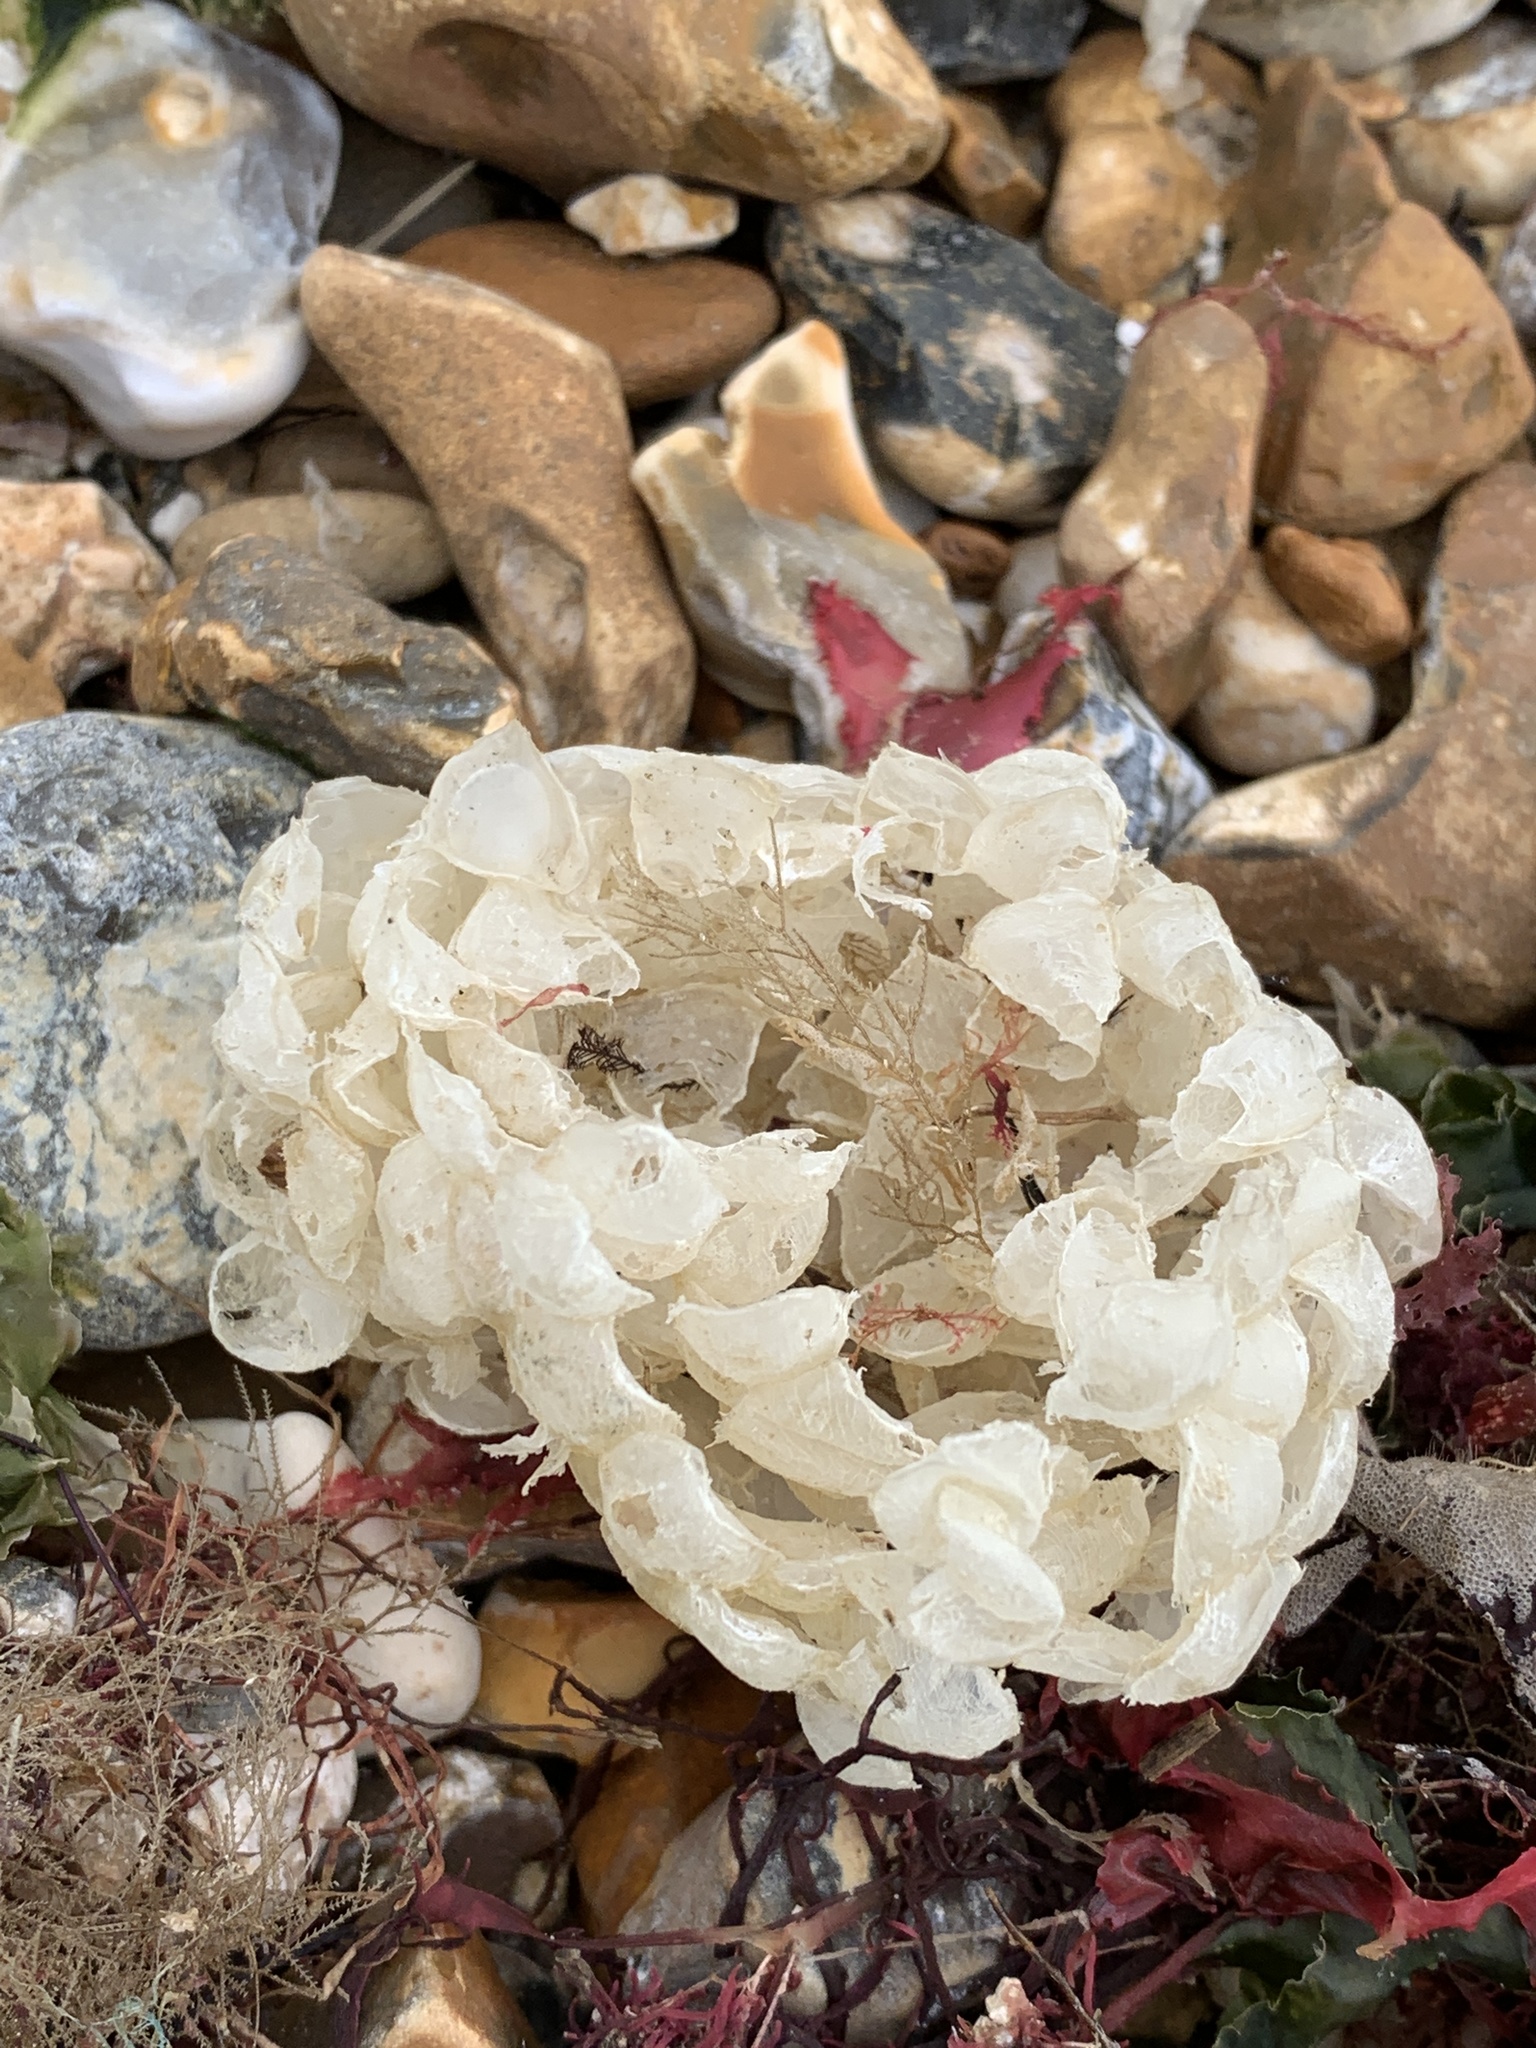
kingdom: Animalia
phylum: Mollusca
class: Gastropoda
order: Neogastropoda
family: Buccinidae
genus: Buccinum
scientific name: Buccinum undatum
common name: Common whelk
